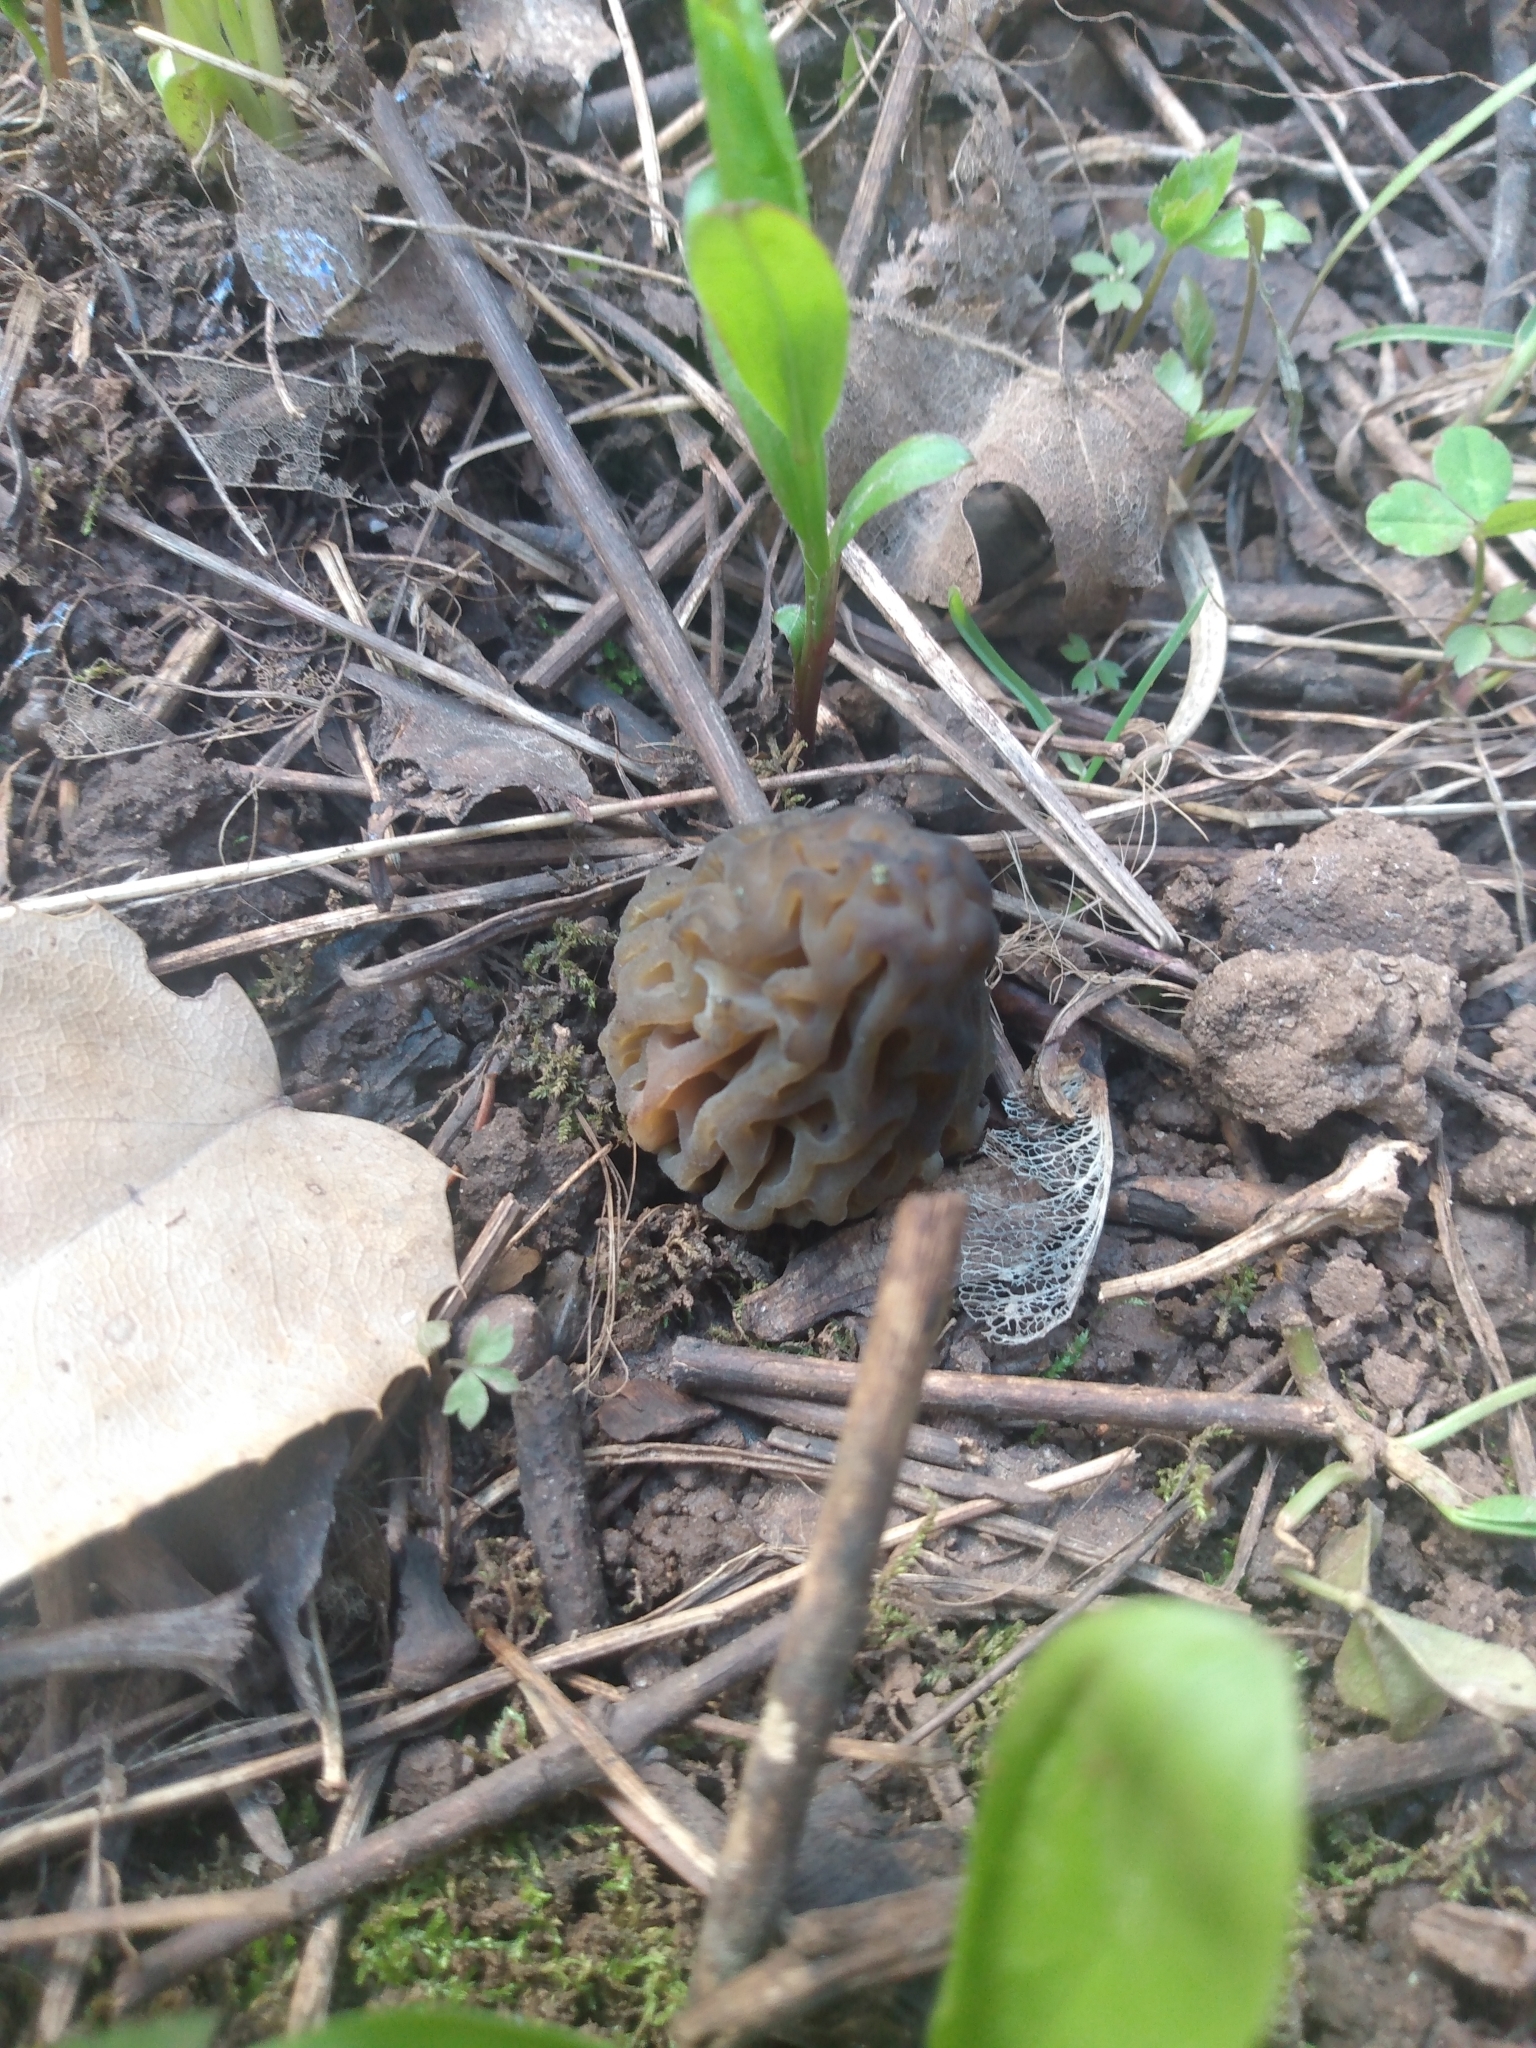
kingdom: Fungi
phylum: Ascomycota
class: Pezizomycetes
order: Pezizales
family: Morchellaceae
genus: Morchella
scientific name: Morchella snyderi
